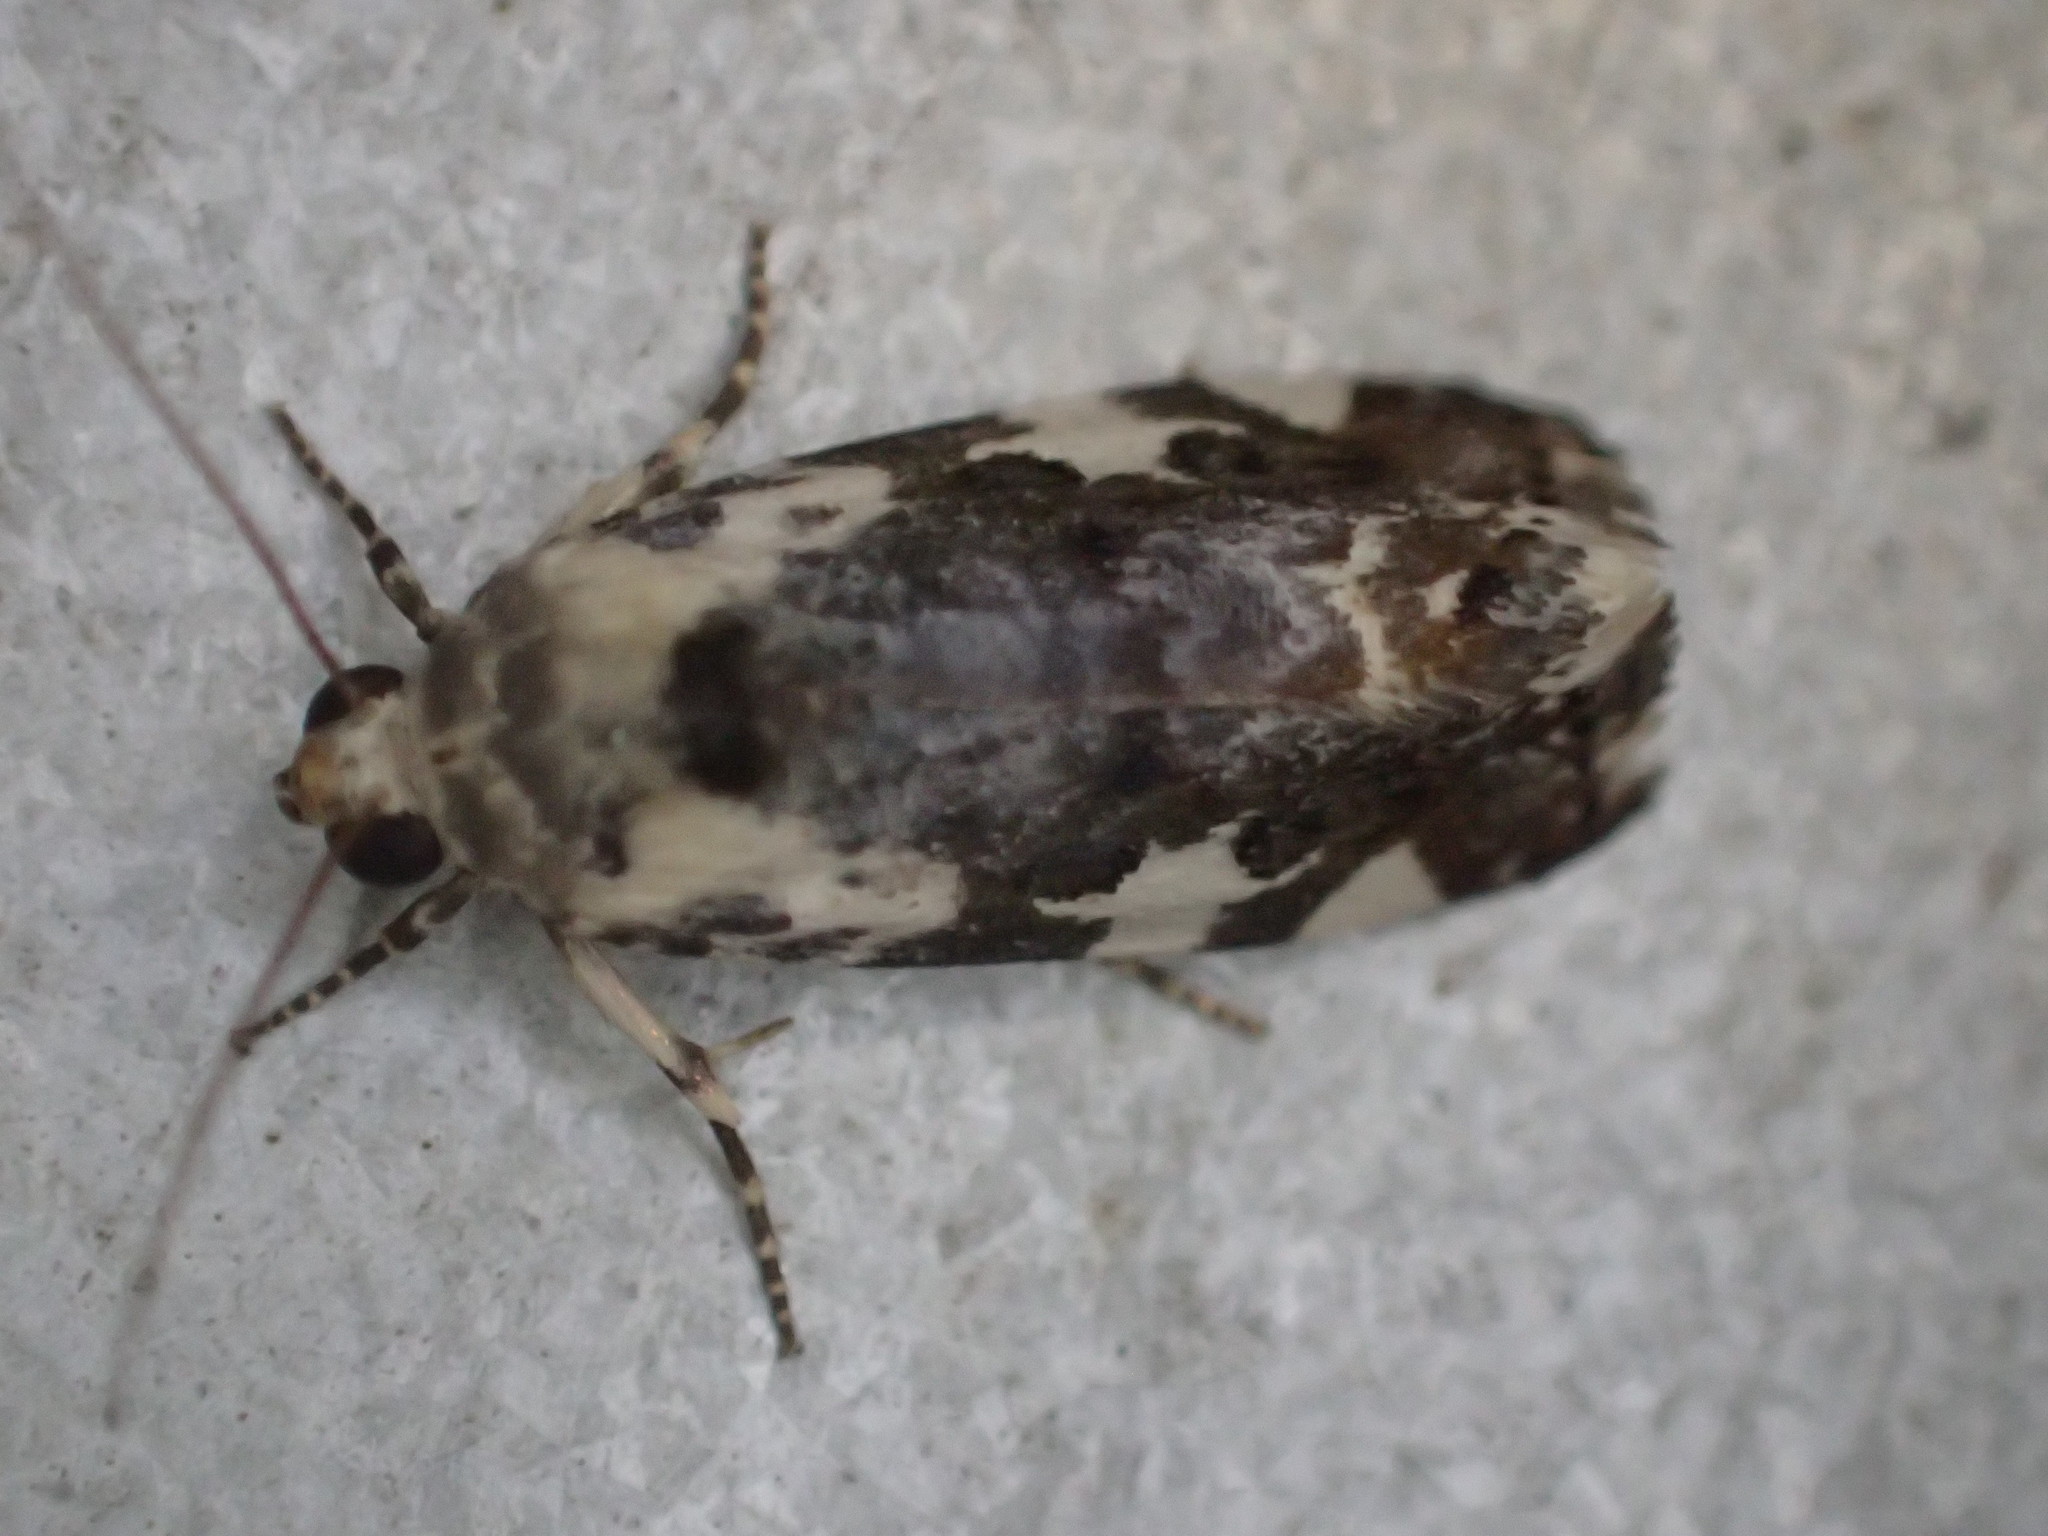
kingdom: Animalia
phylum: Arthropoda
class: Insecta
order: Lepidoptera
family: Noctuidae
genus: Acontia
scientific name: Acontia nivipicta
